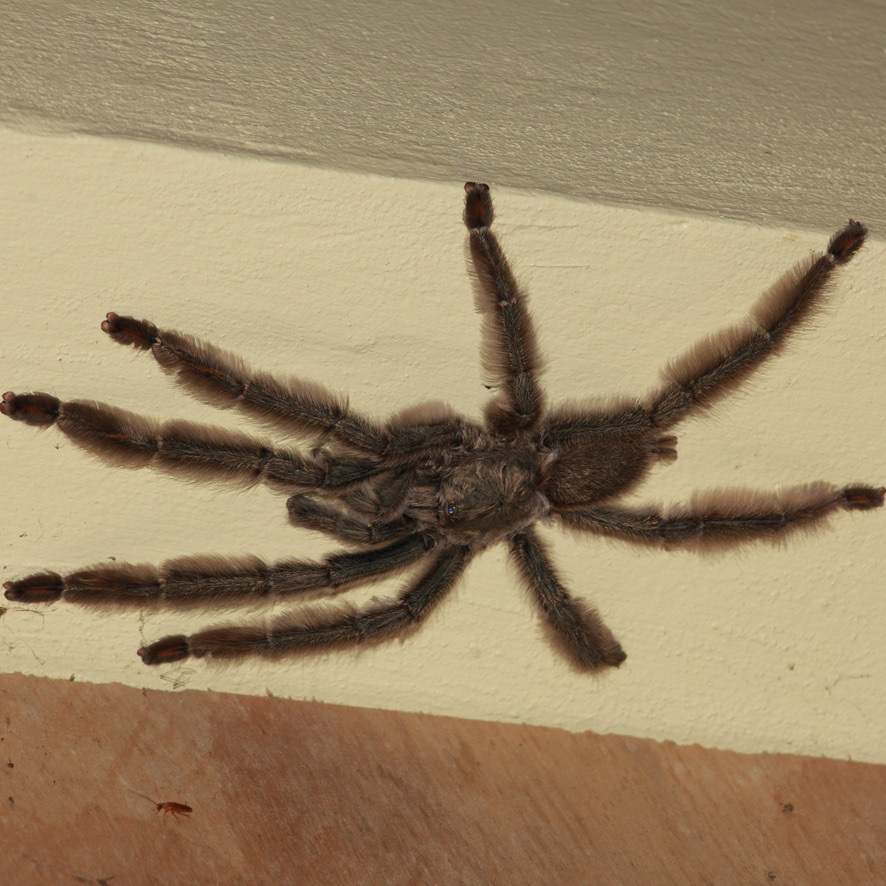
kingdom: Animalia
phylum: Arthropoda
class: Arachnida
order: Araneae
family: Theraphosidae
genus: Psalmopoeus
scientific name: Psalmopoeus cambridgei
